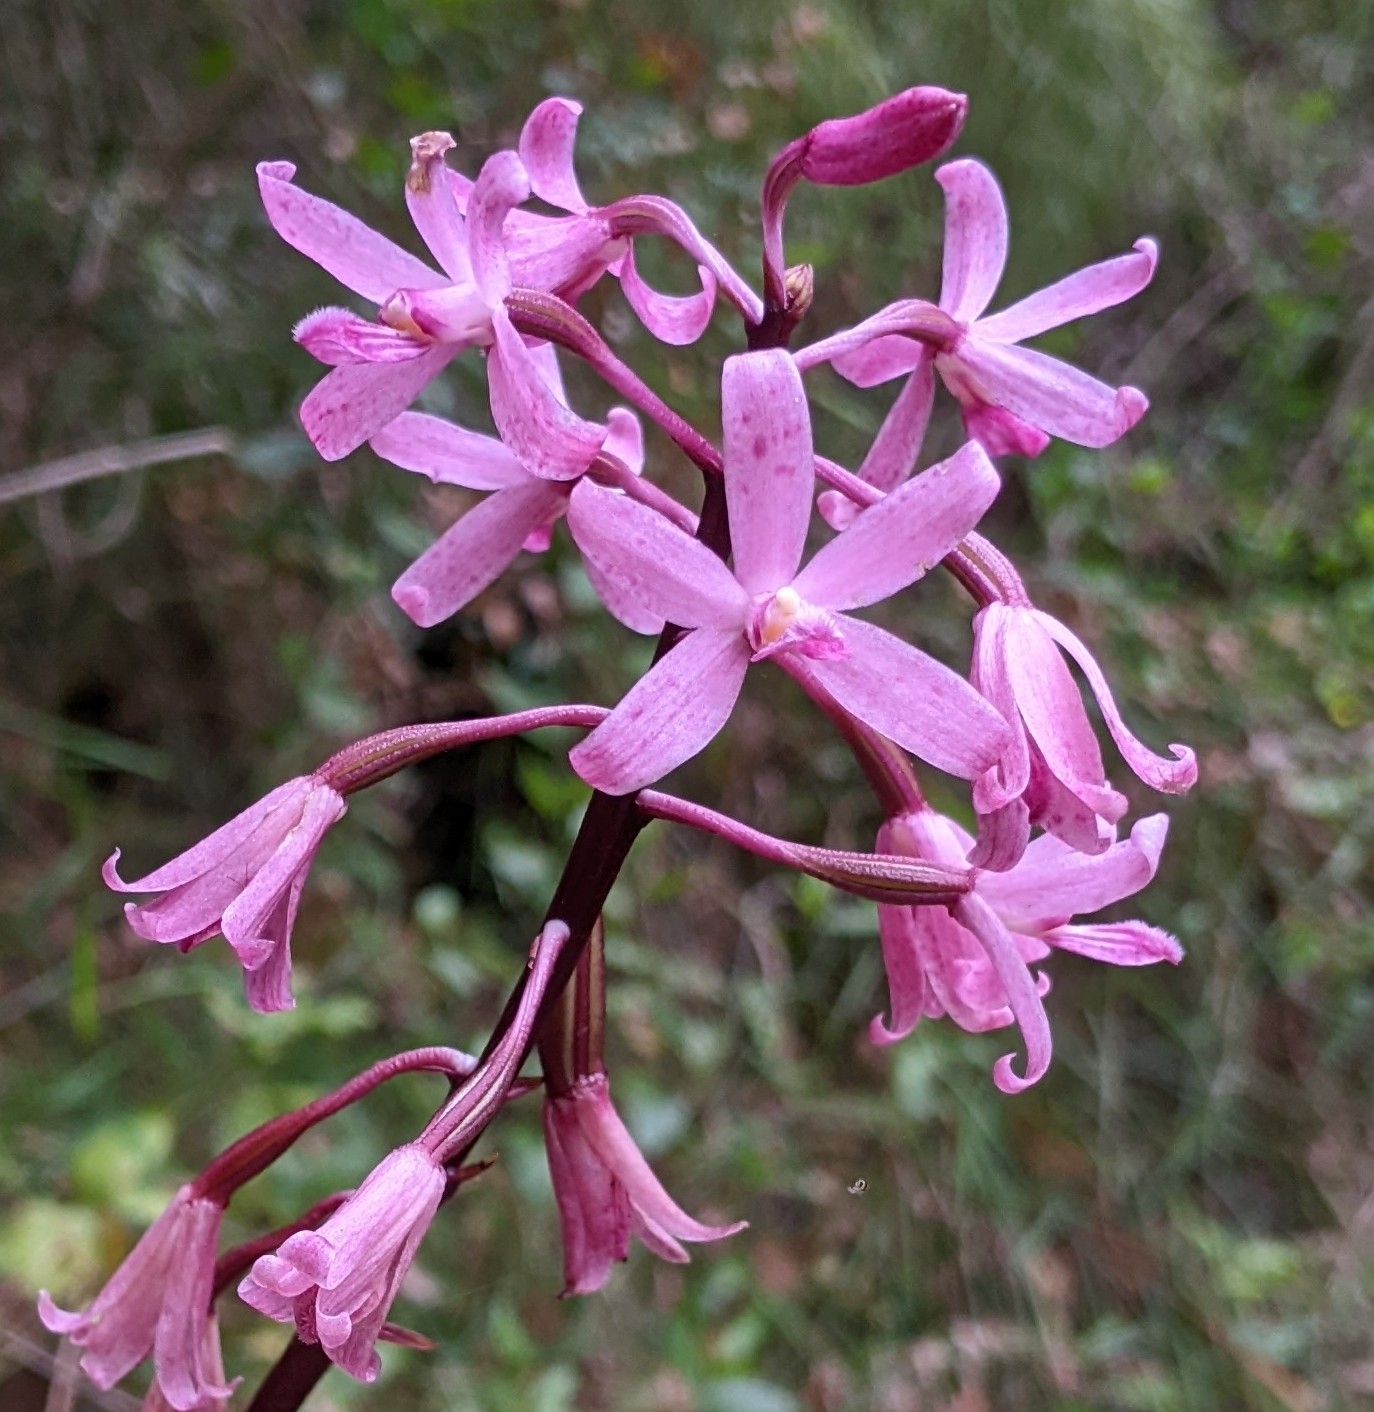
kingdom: Plantae
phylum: Tracheophyta
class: Liliopsida
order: Asparagales
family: Orchidaceae
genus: Dipodium
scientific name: Dipodium roseum
